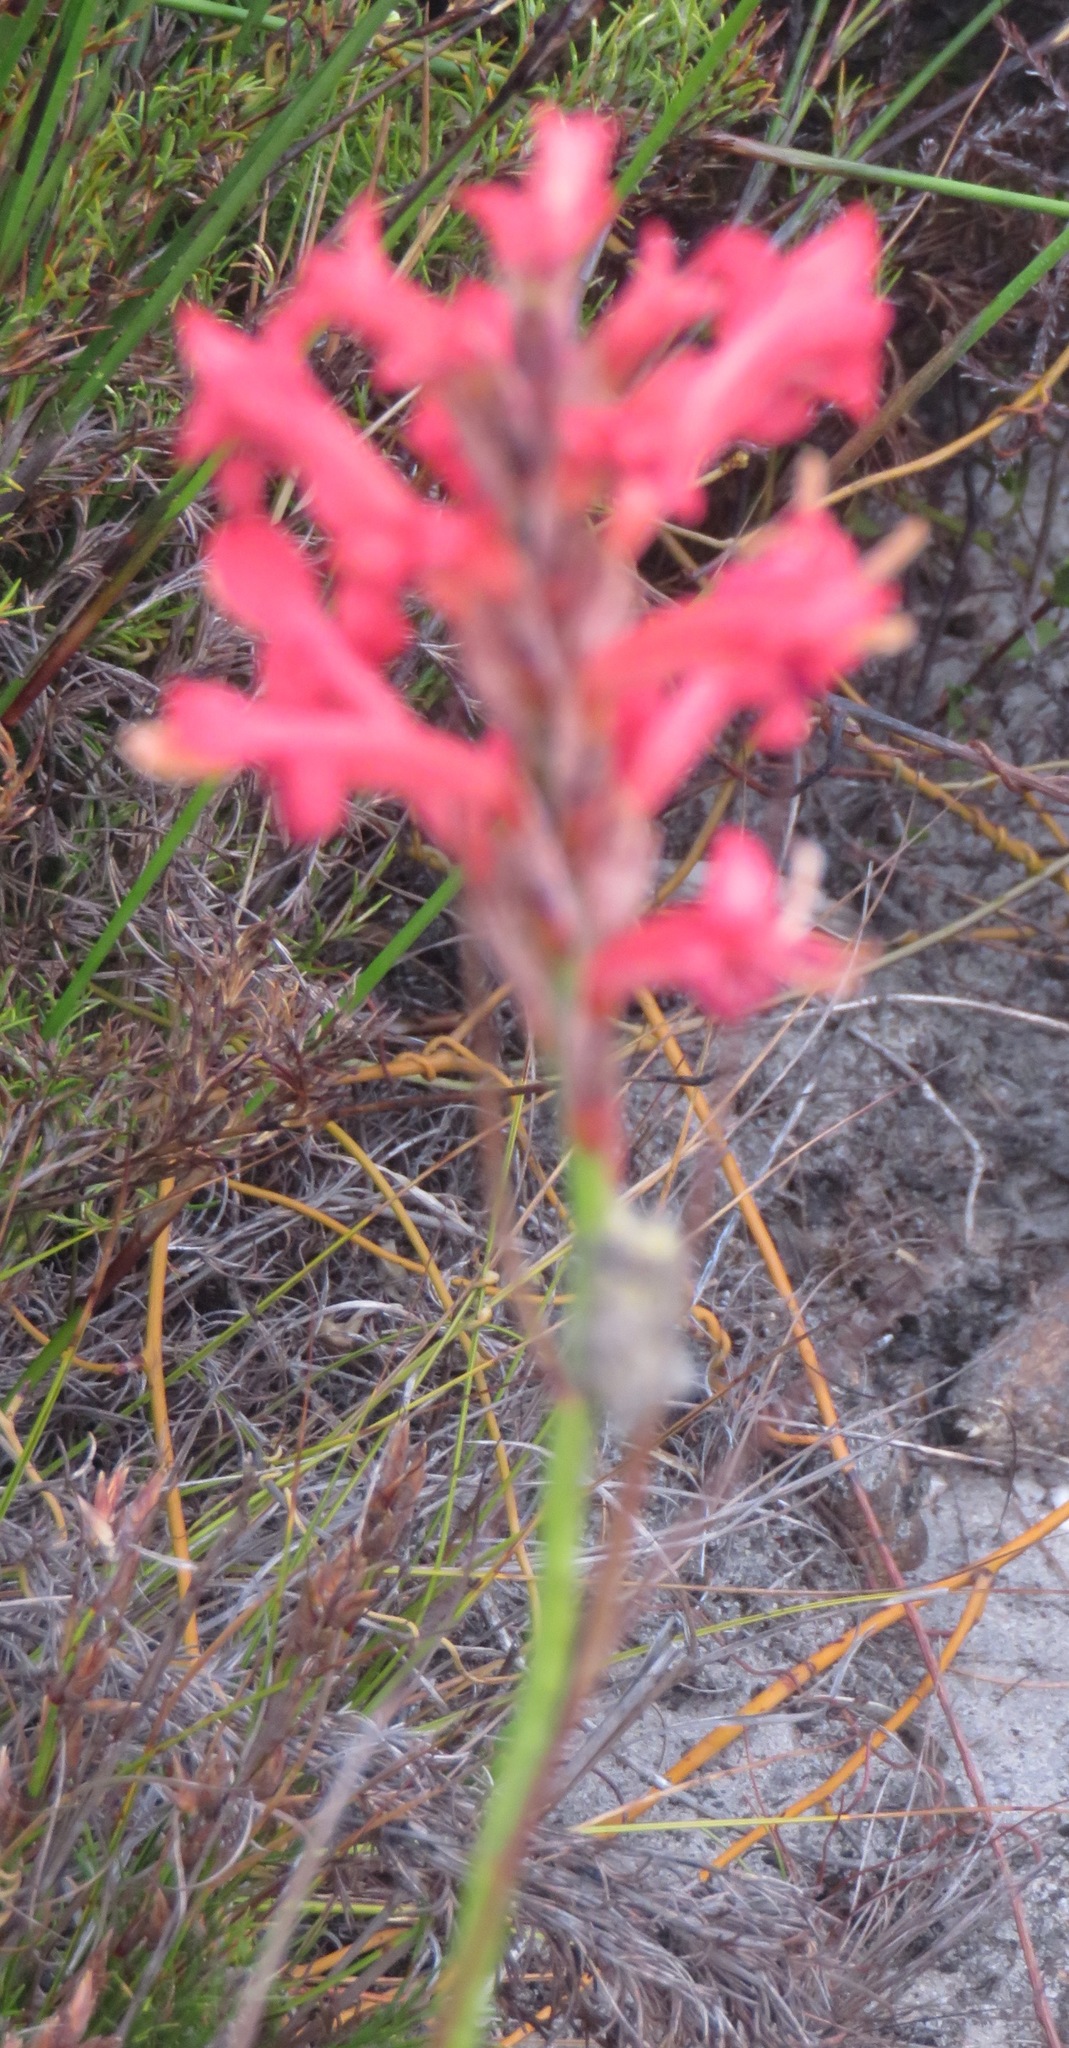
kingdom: Plantae
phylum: Tracheophyta
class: Liliopsida
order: Asparagales
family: Iridaceae
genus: Tritoniopsis
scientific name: Tritoniopsis triticea
